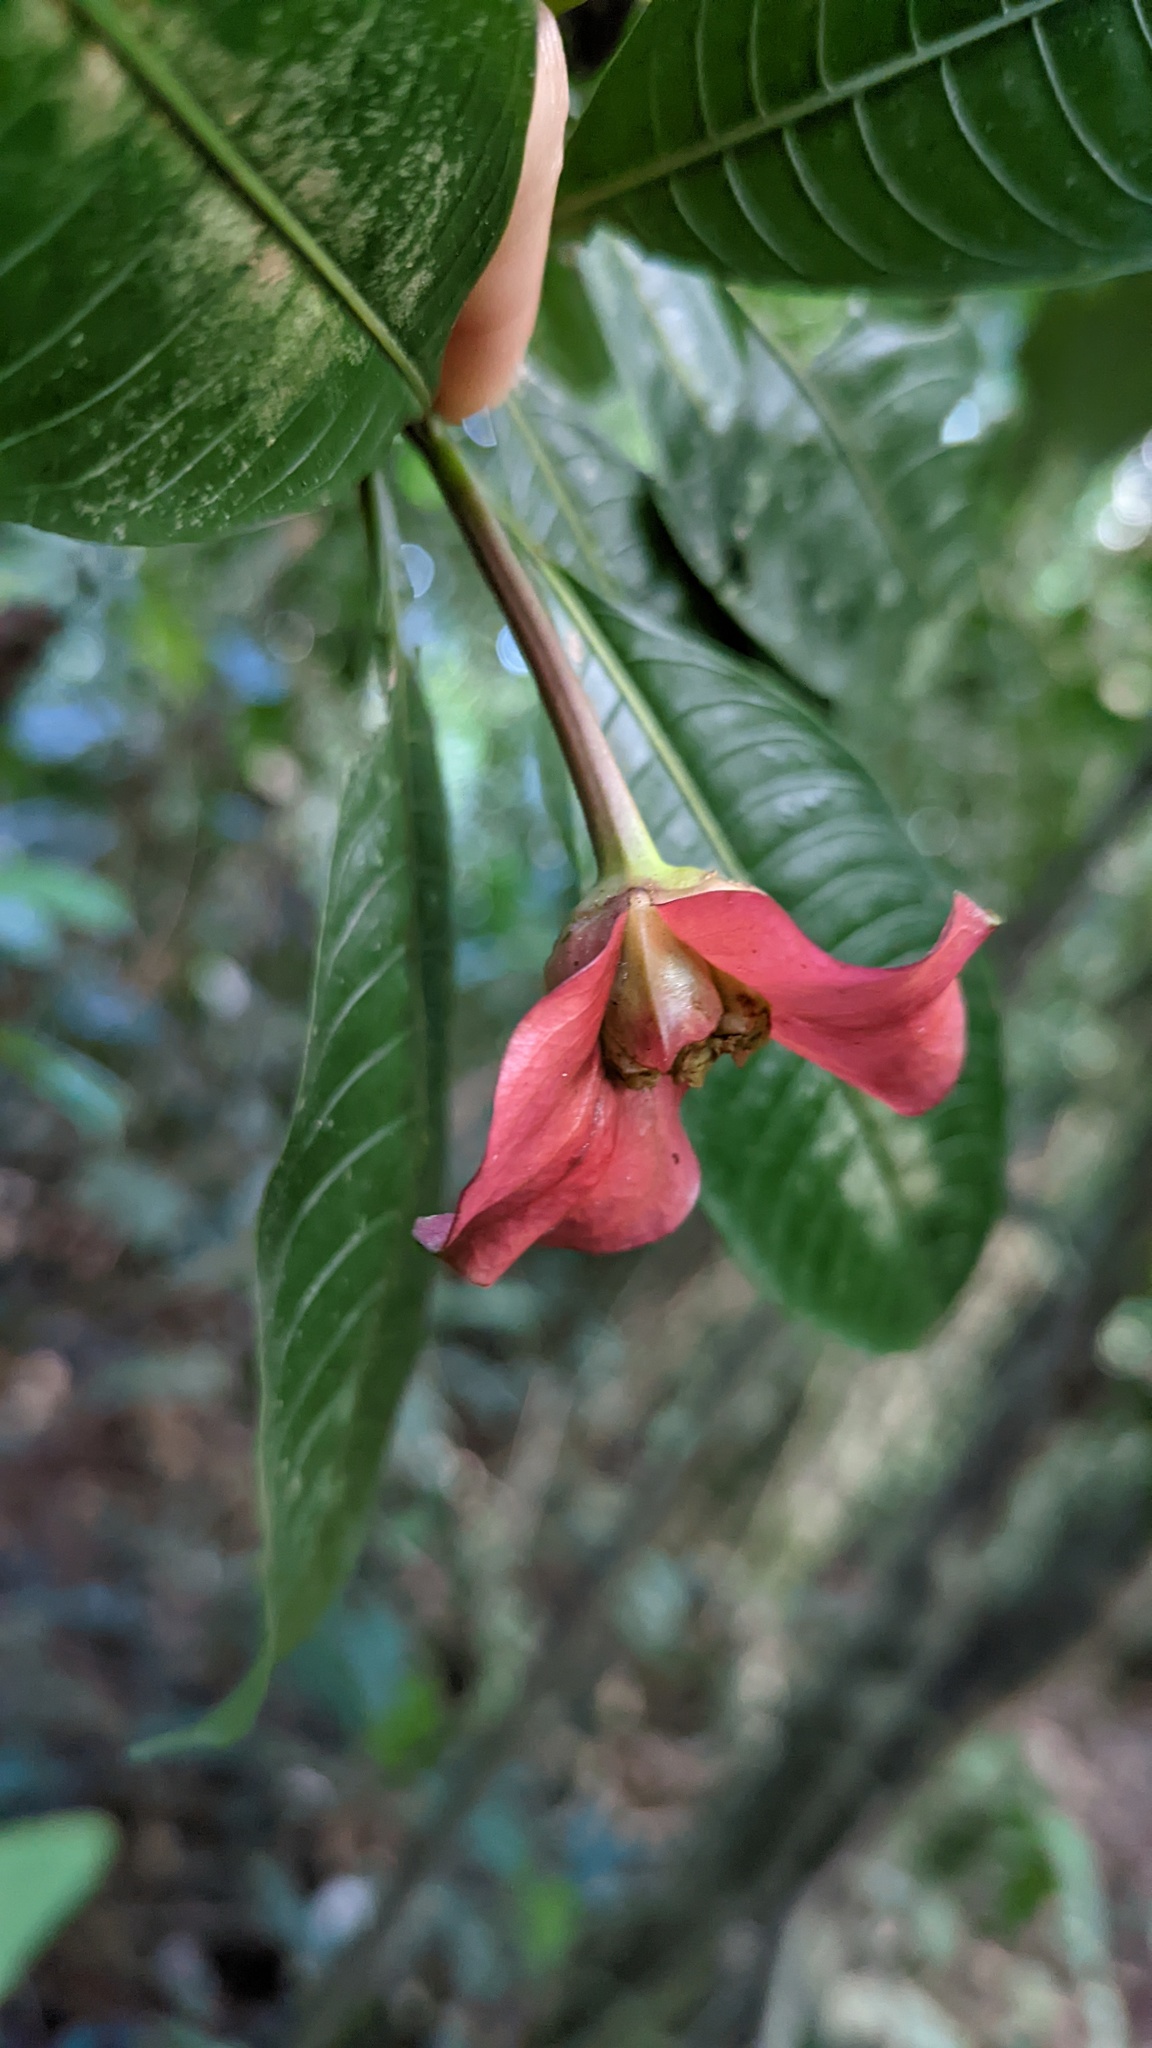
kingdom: Plantae
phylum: Tracheophyta
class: Magnoliopsida
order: Gentianales
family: Rubiaceae
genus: Palicourea
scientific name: Palicourea elata
